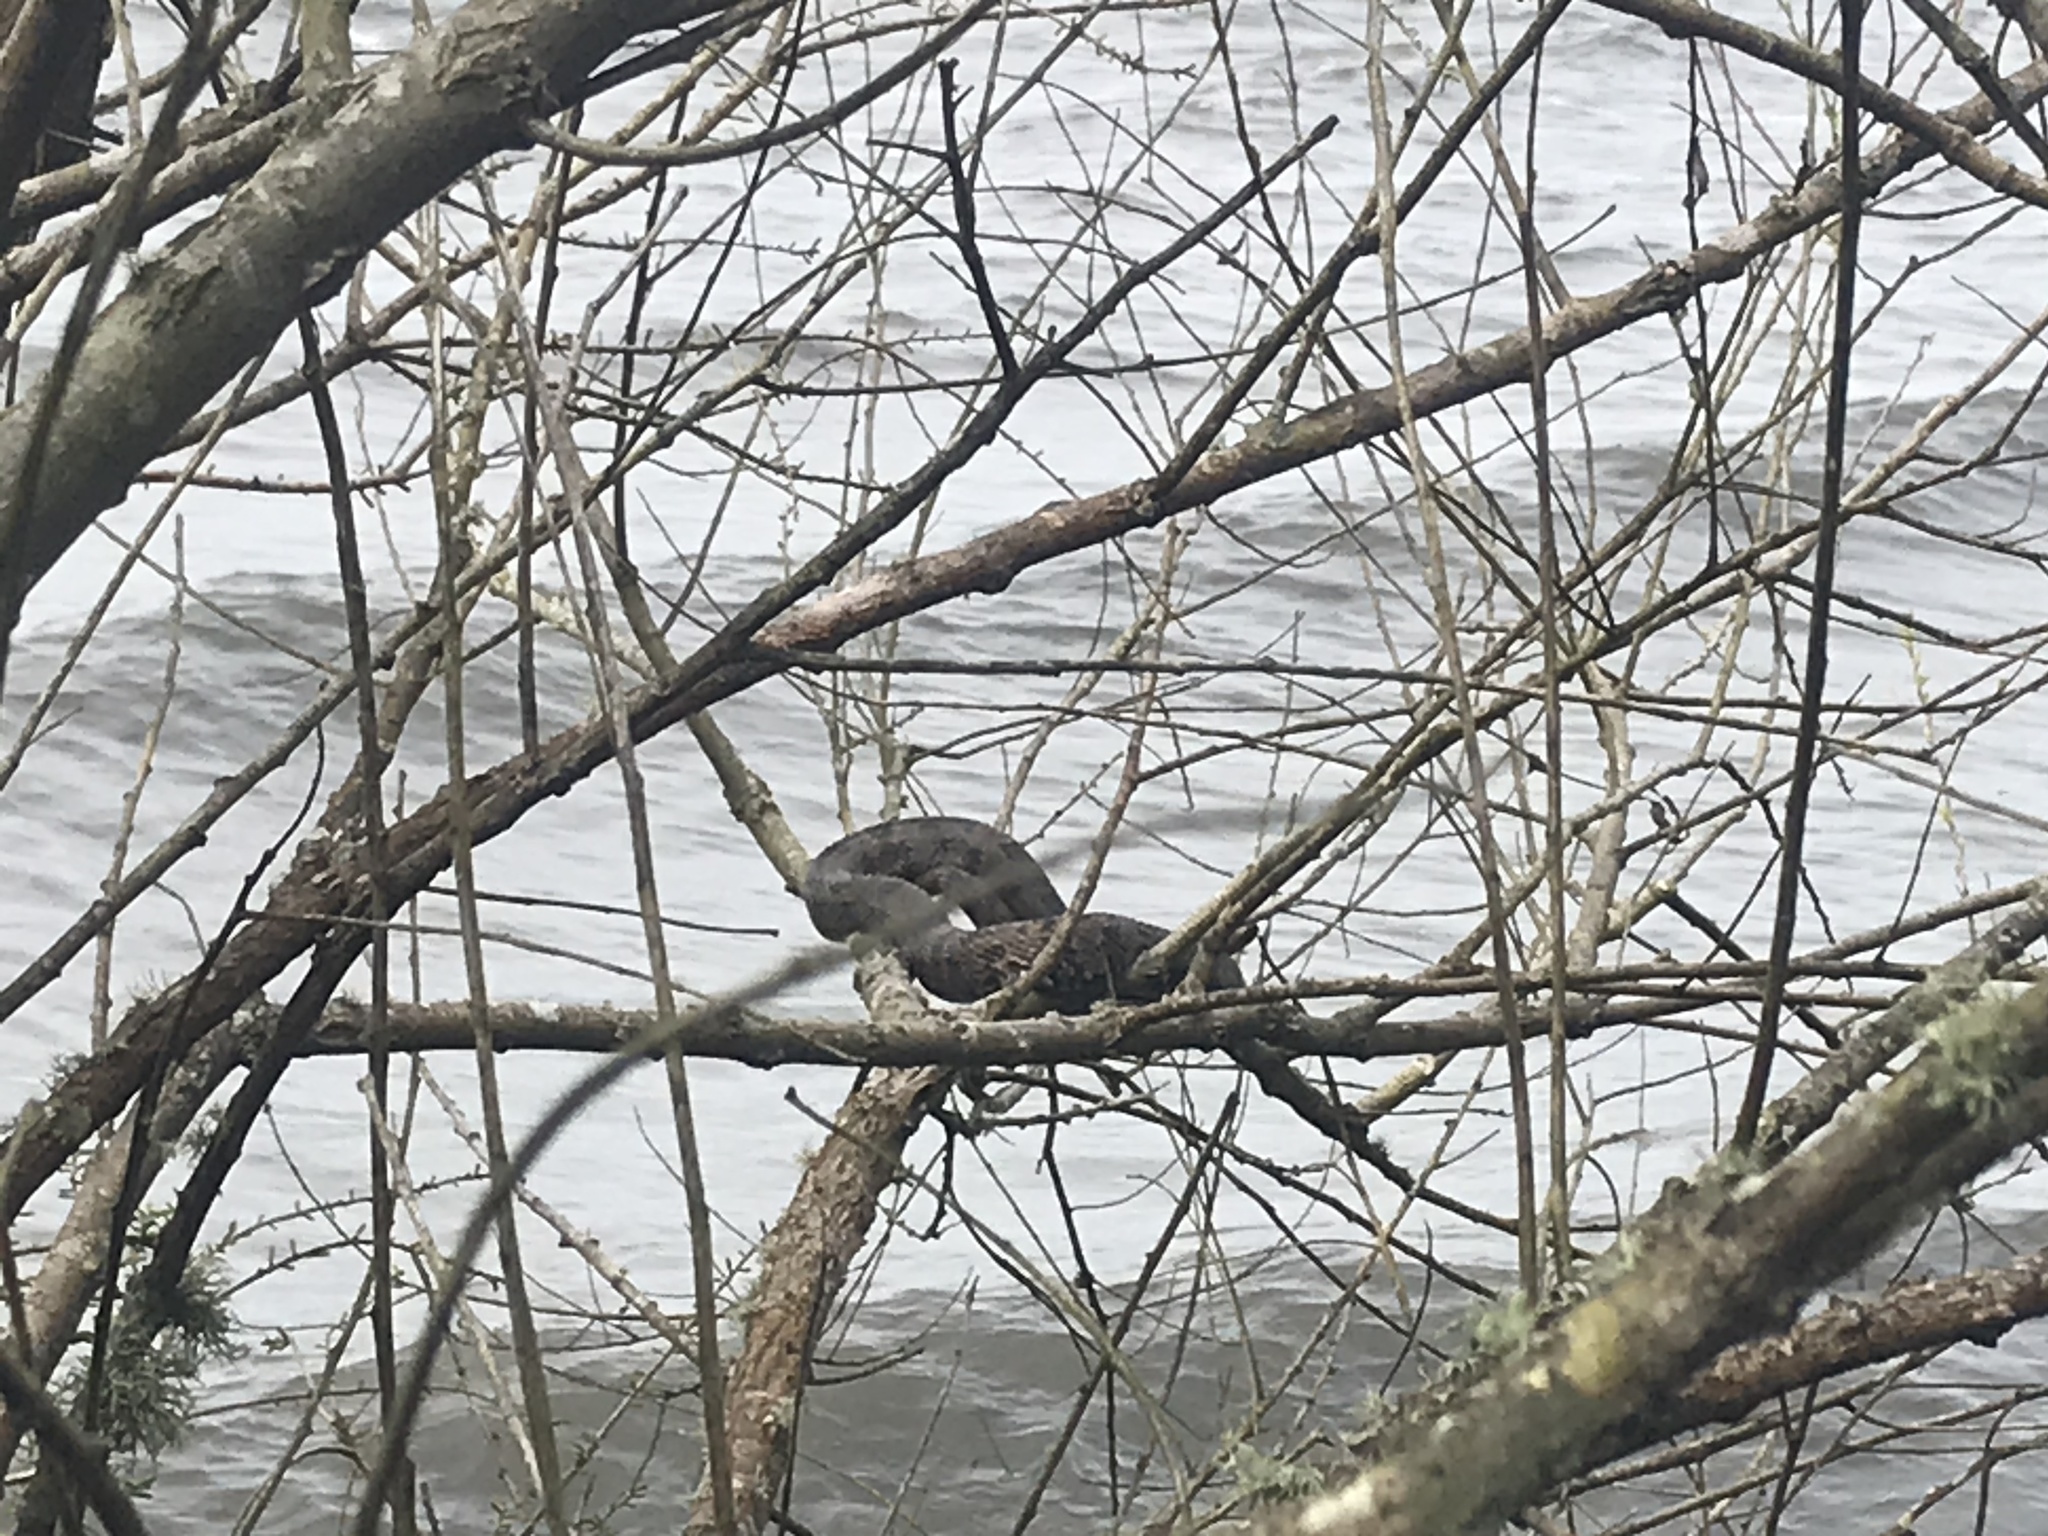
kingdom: Animalia
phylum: Chordata
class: Squamata
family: Colubridae
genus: Nerodia
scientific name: Nerodia taxispilota
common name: Brown water snake
